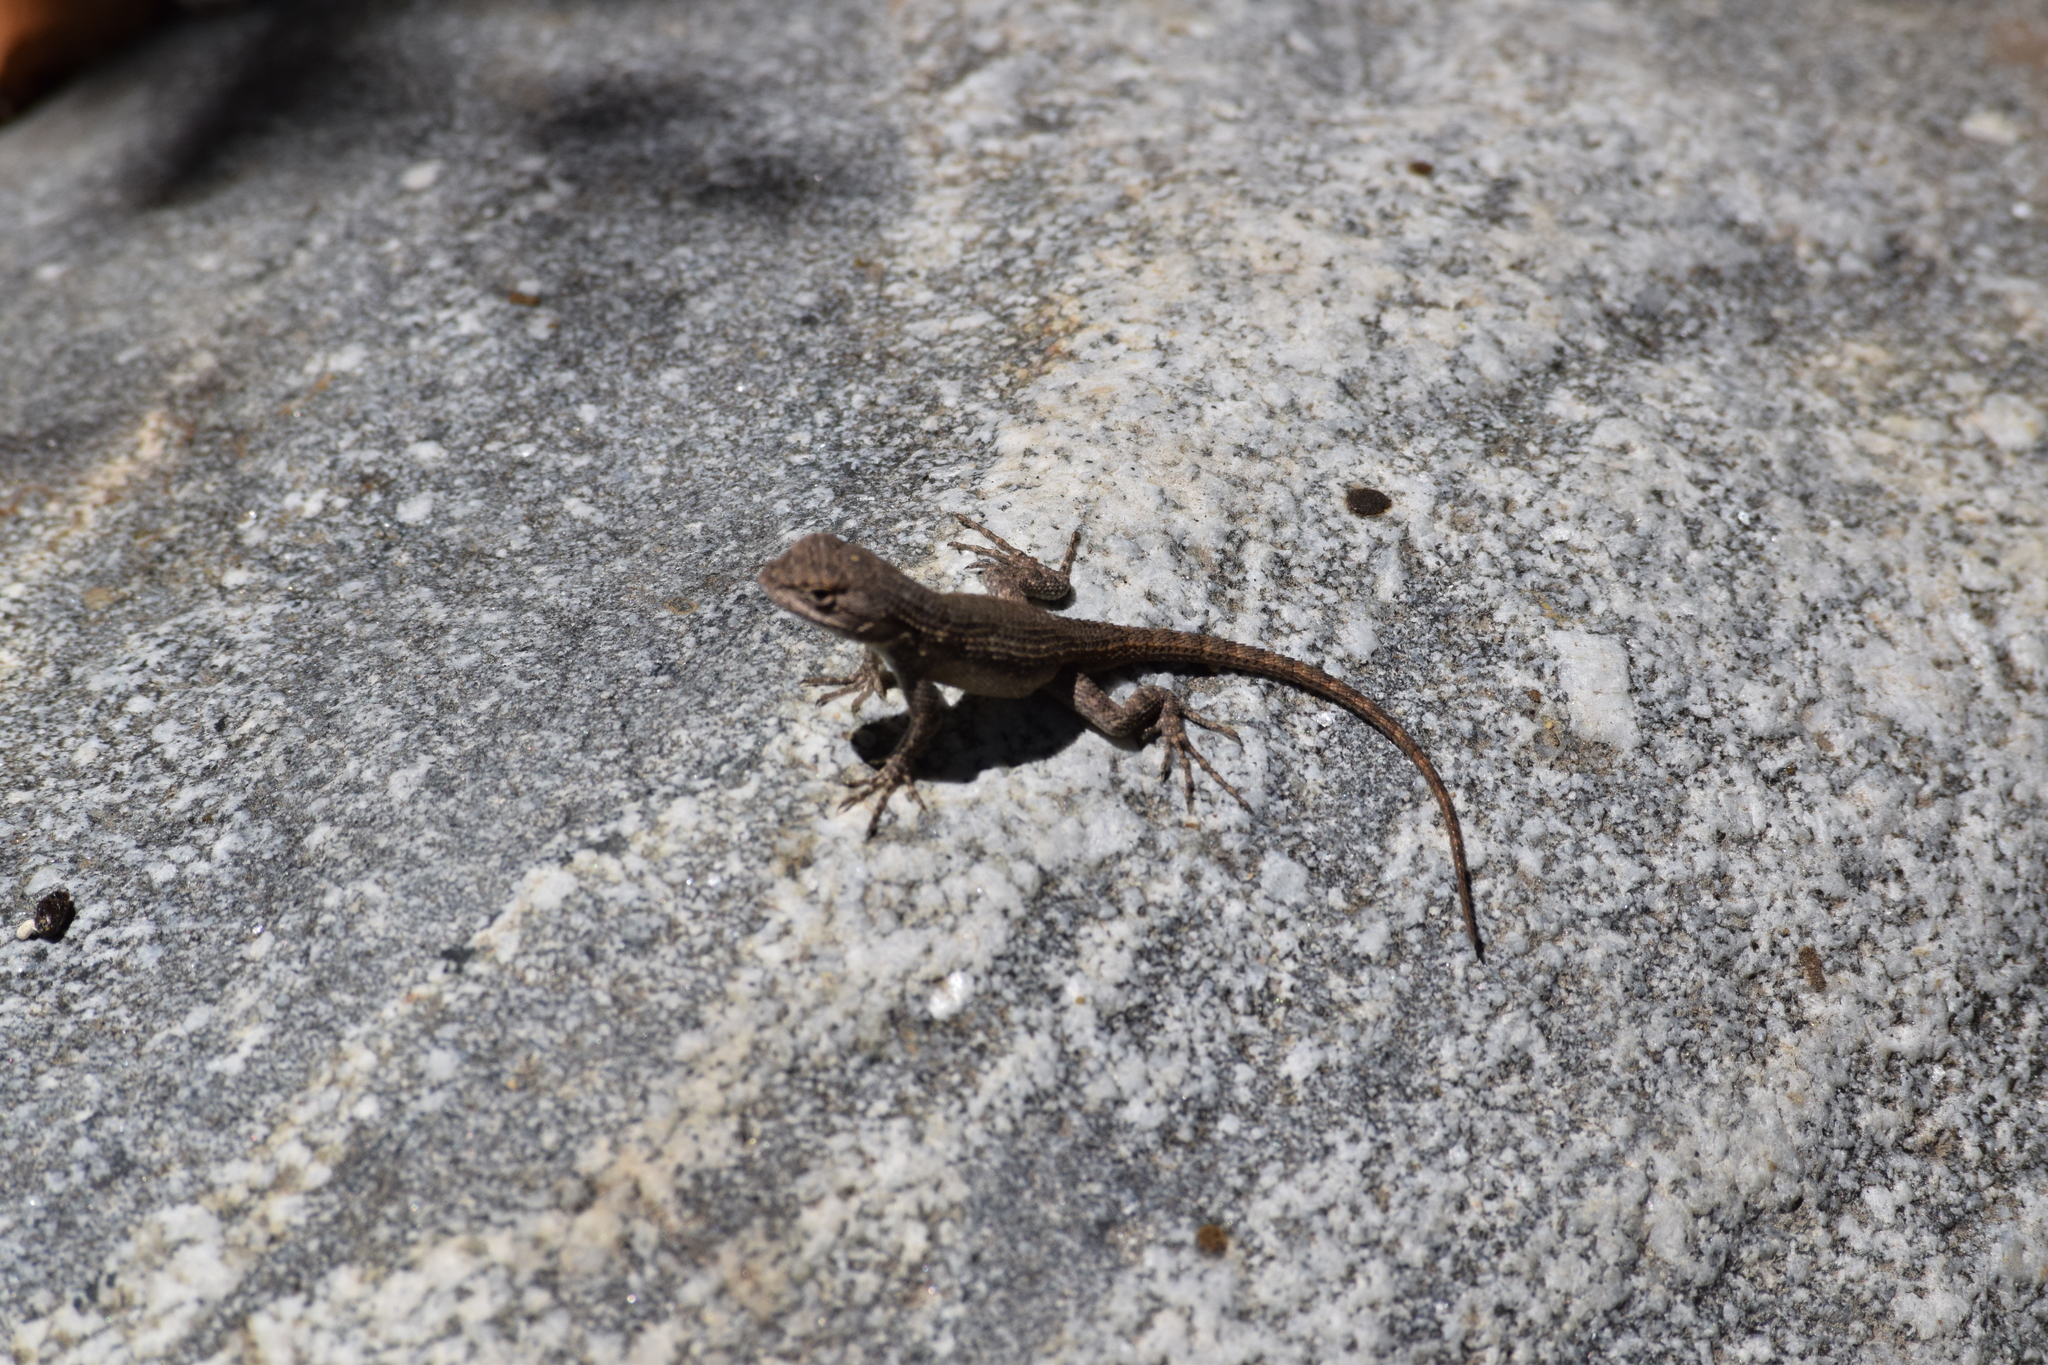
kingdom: Animalia
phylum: Chordata
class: Squamata
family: Phrynosomatidae
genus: Sceloporus
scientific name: Sceloporus occidentalis
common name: Western fence lizard
